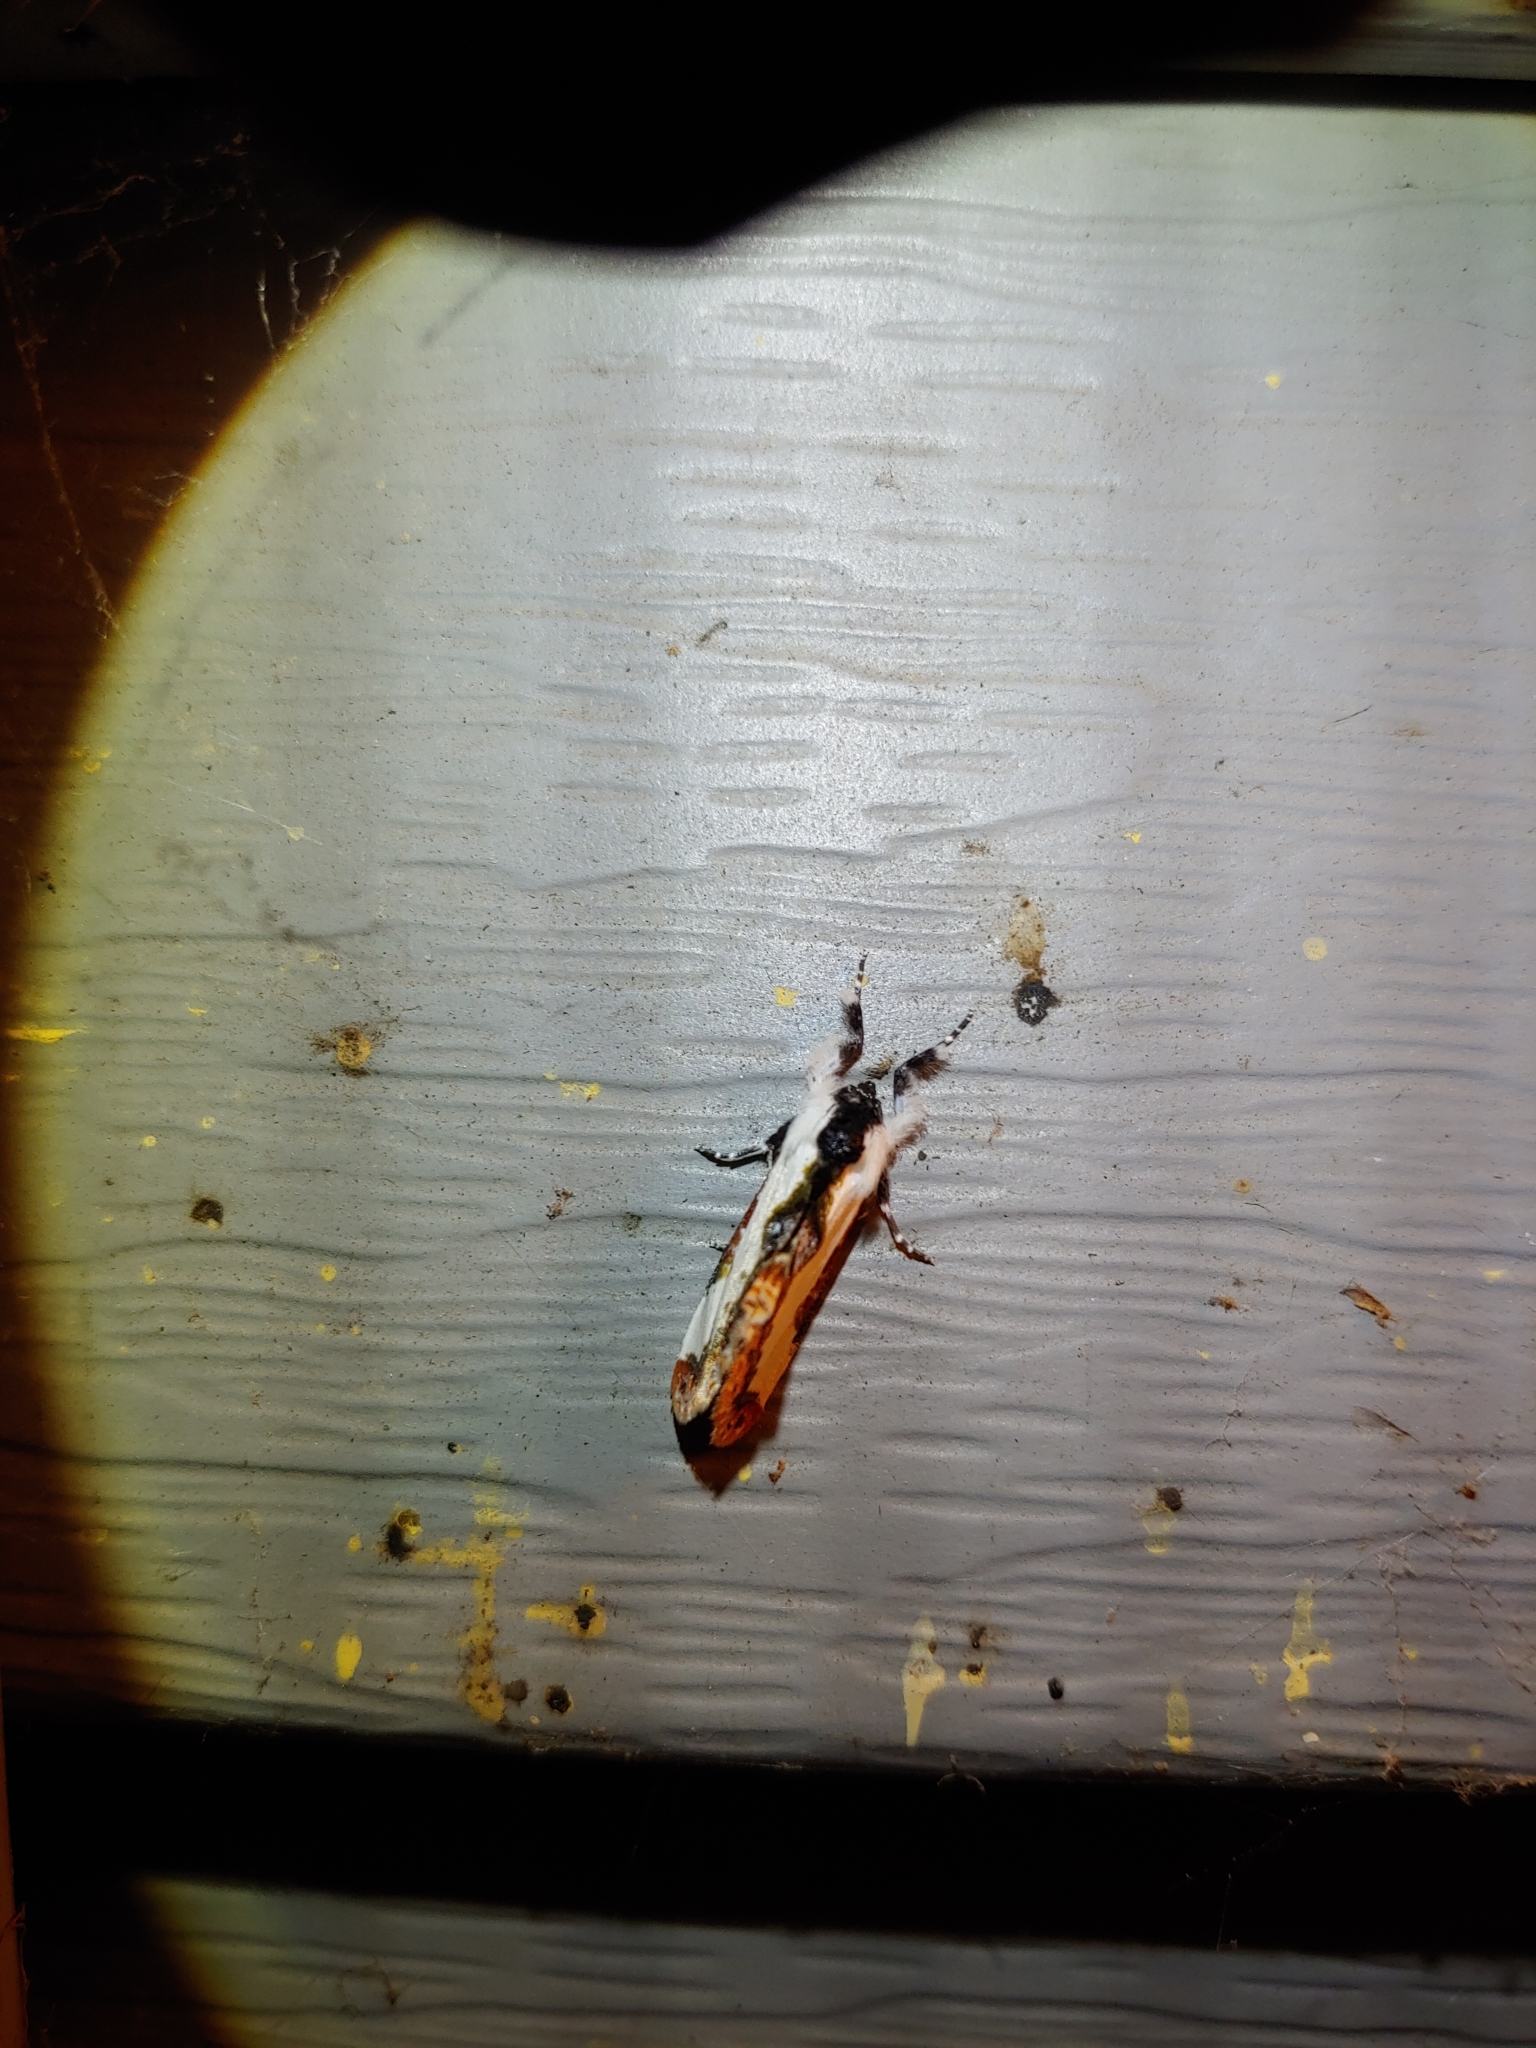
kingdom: Animalia
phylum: Arthropoda
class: Insecta
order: Lepidoptera
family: Noctuidae
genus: Eudryas
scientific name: Eudryas unio
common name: Pearly wood-nymph
